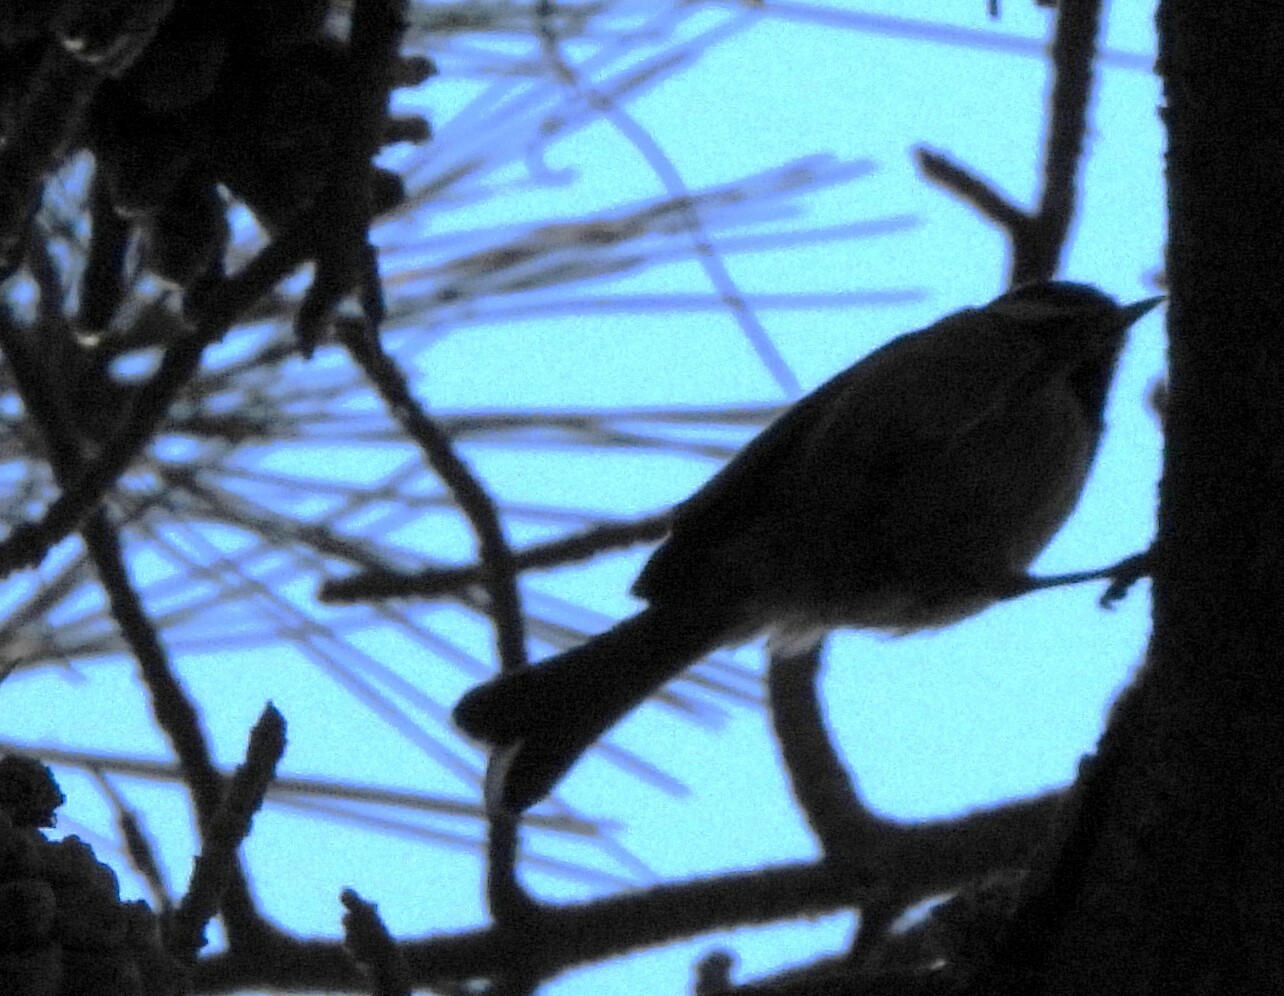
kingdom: Animalia
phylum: Chordata
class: Aves
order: Passeriformes
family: Paridae
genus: Poecile
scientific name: Poecile rufescens
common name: Chestnut-backed chickadee
